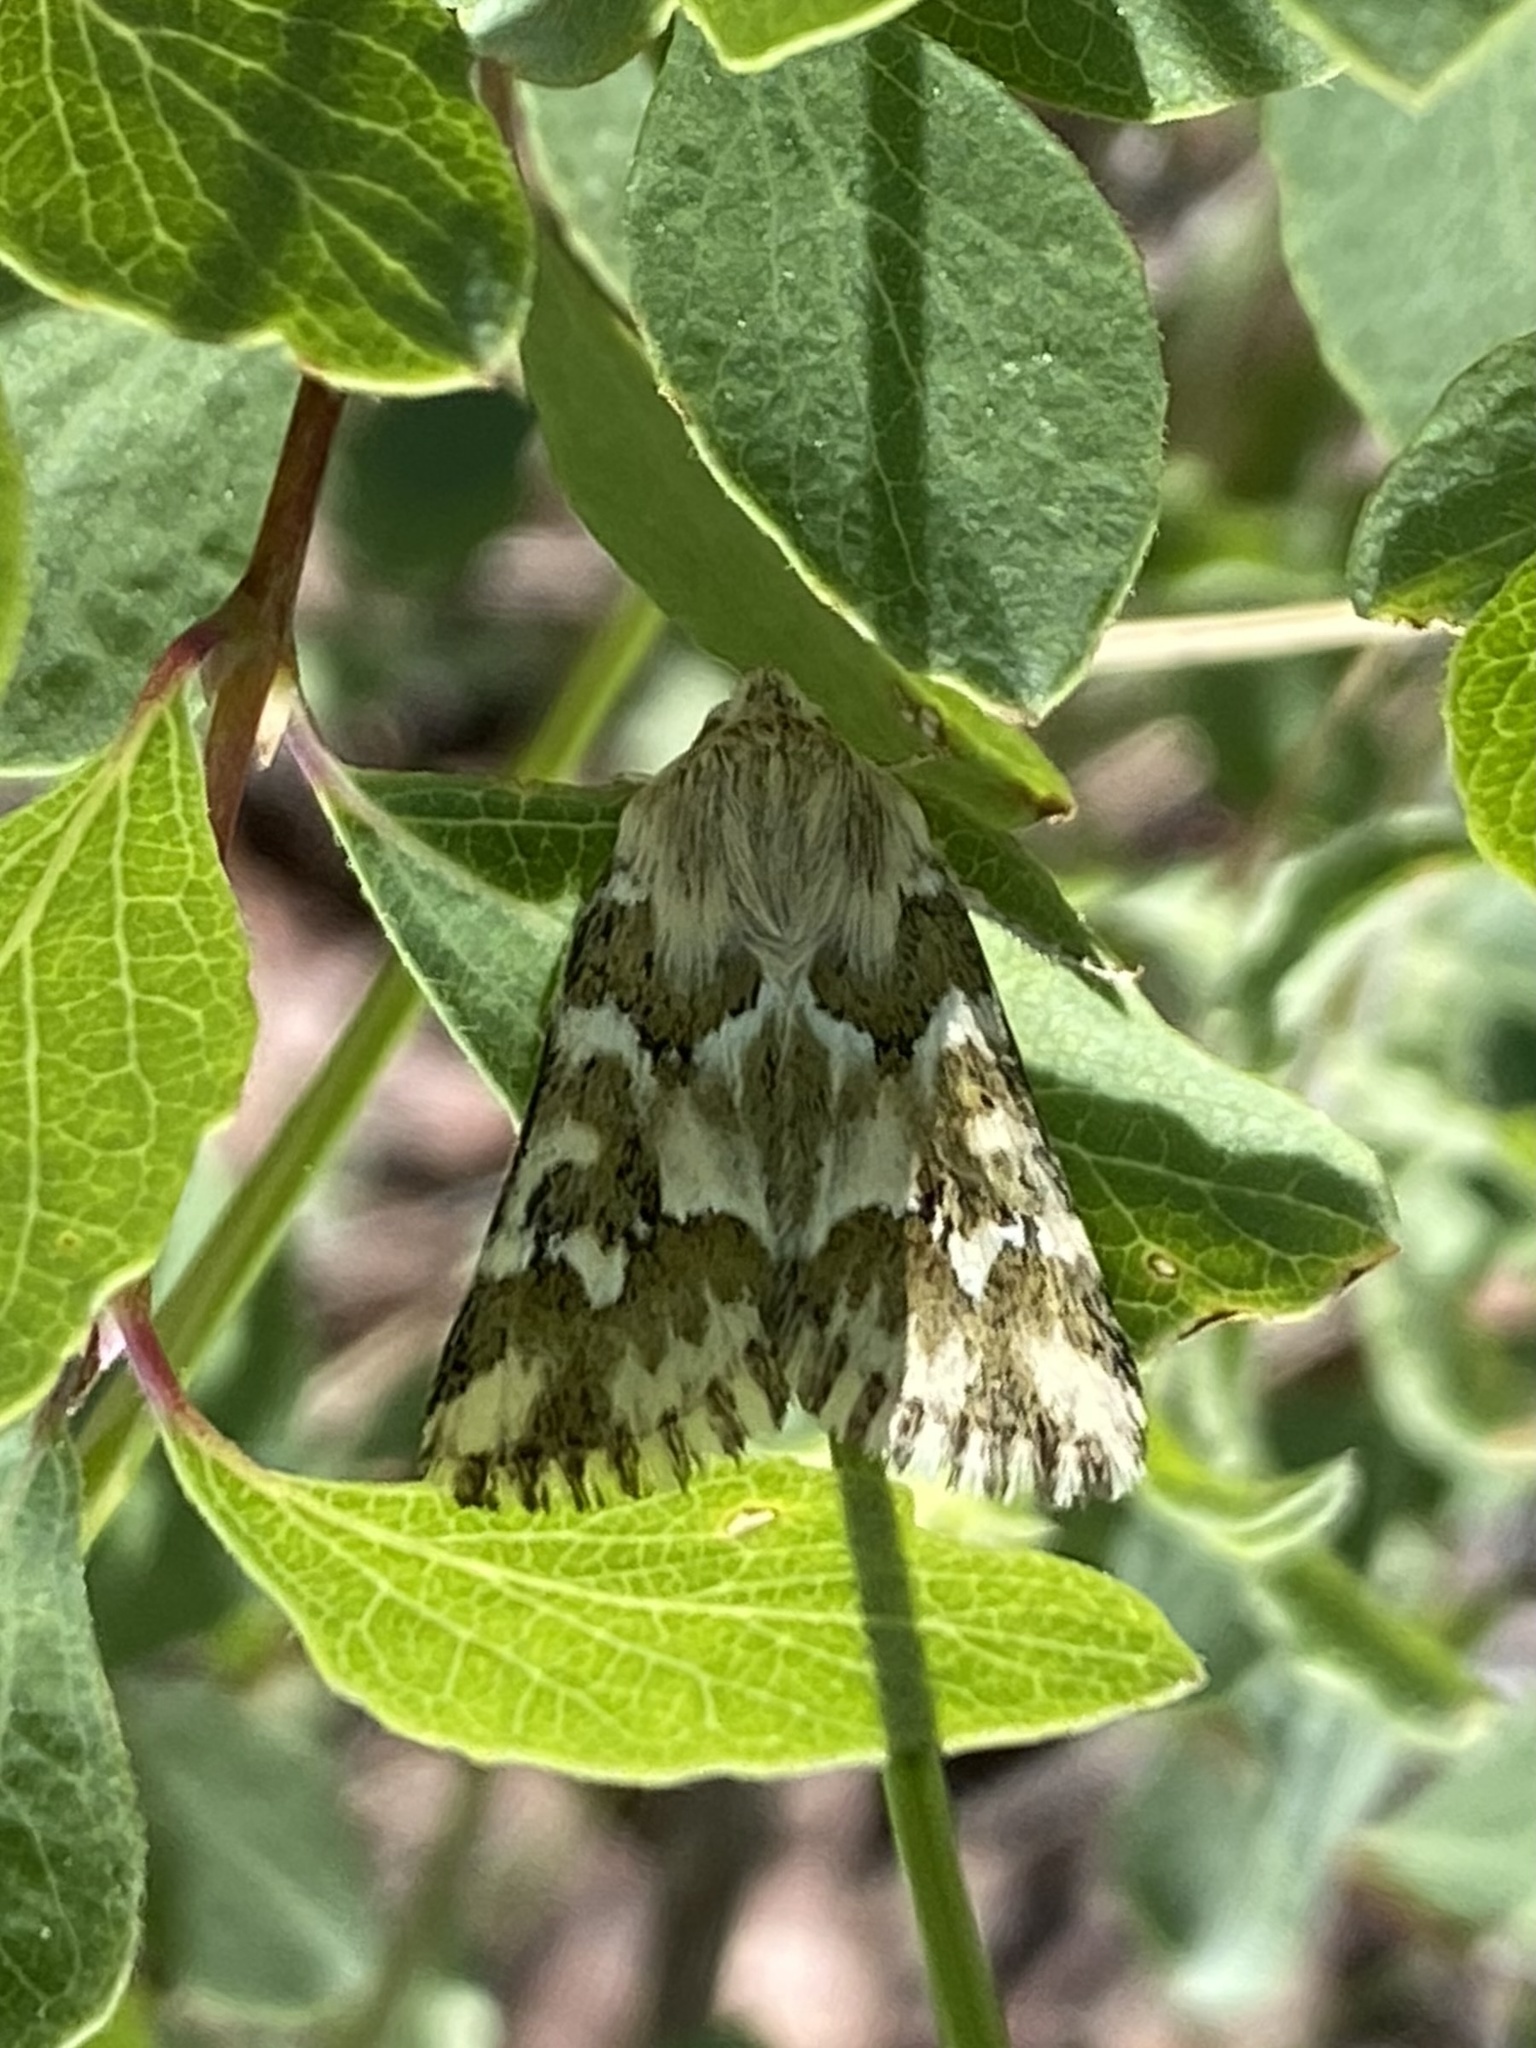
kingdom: Animalia
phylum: Arthropoda
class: Insecta
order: Lepidoptera
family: Noctuidae
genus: Schinia
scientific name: Schinia meadi
